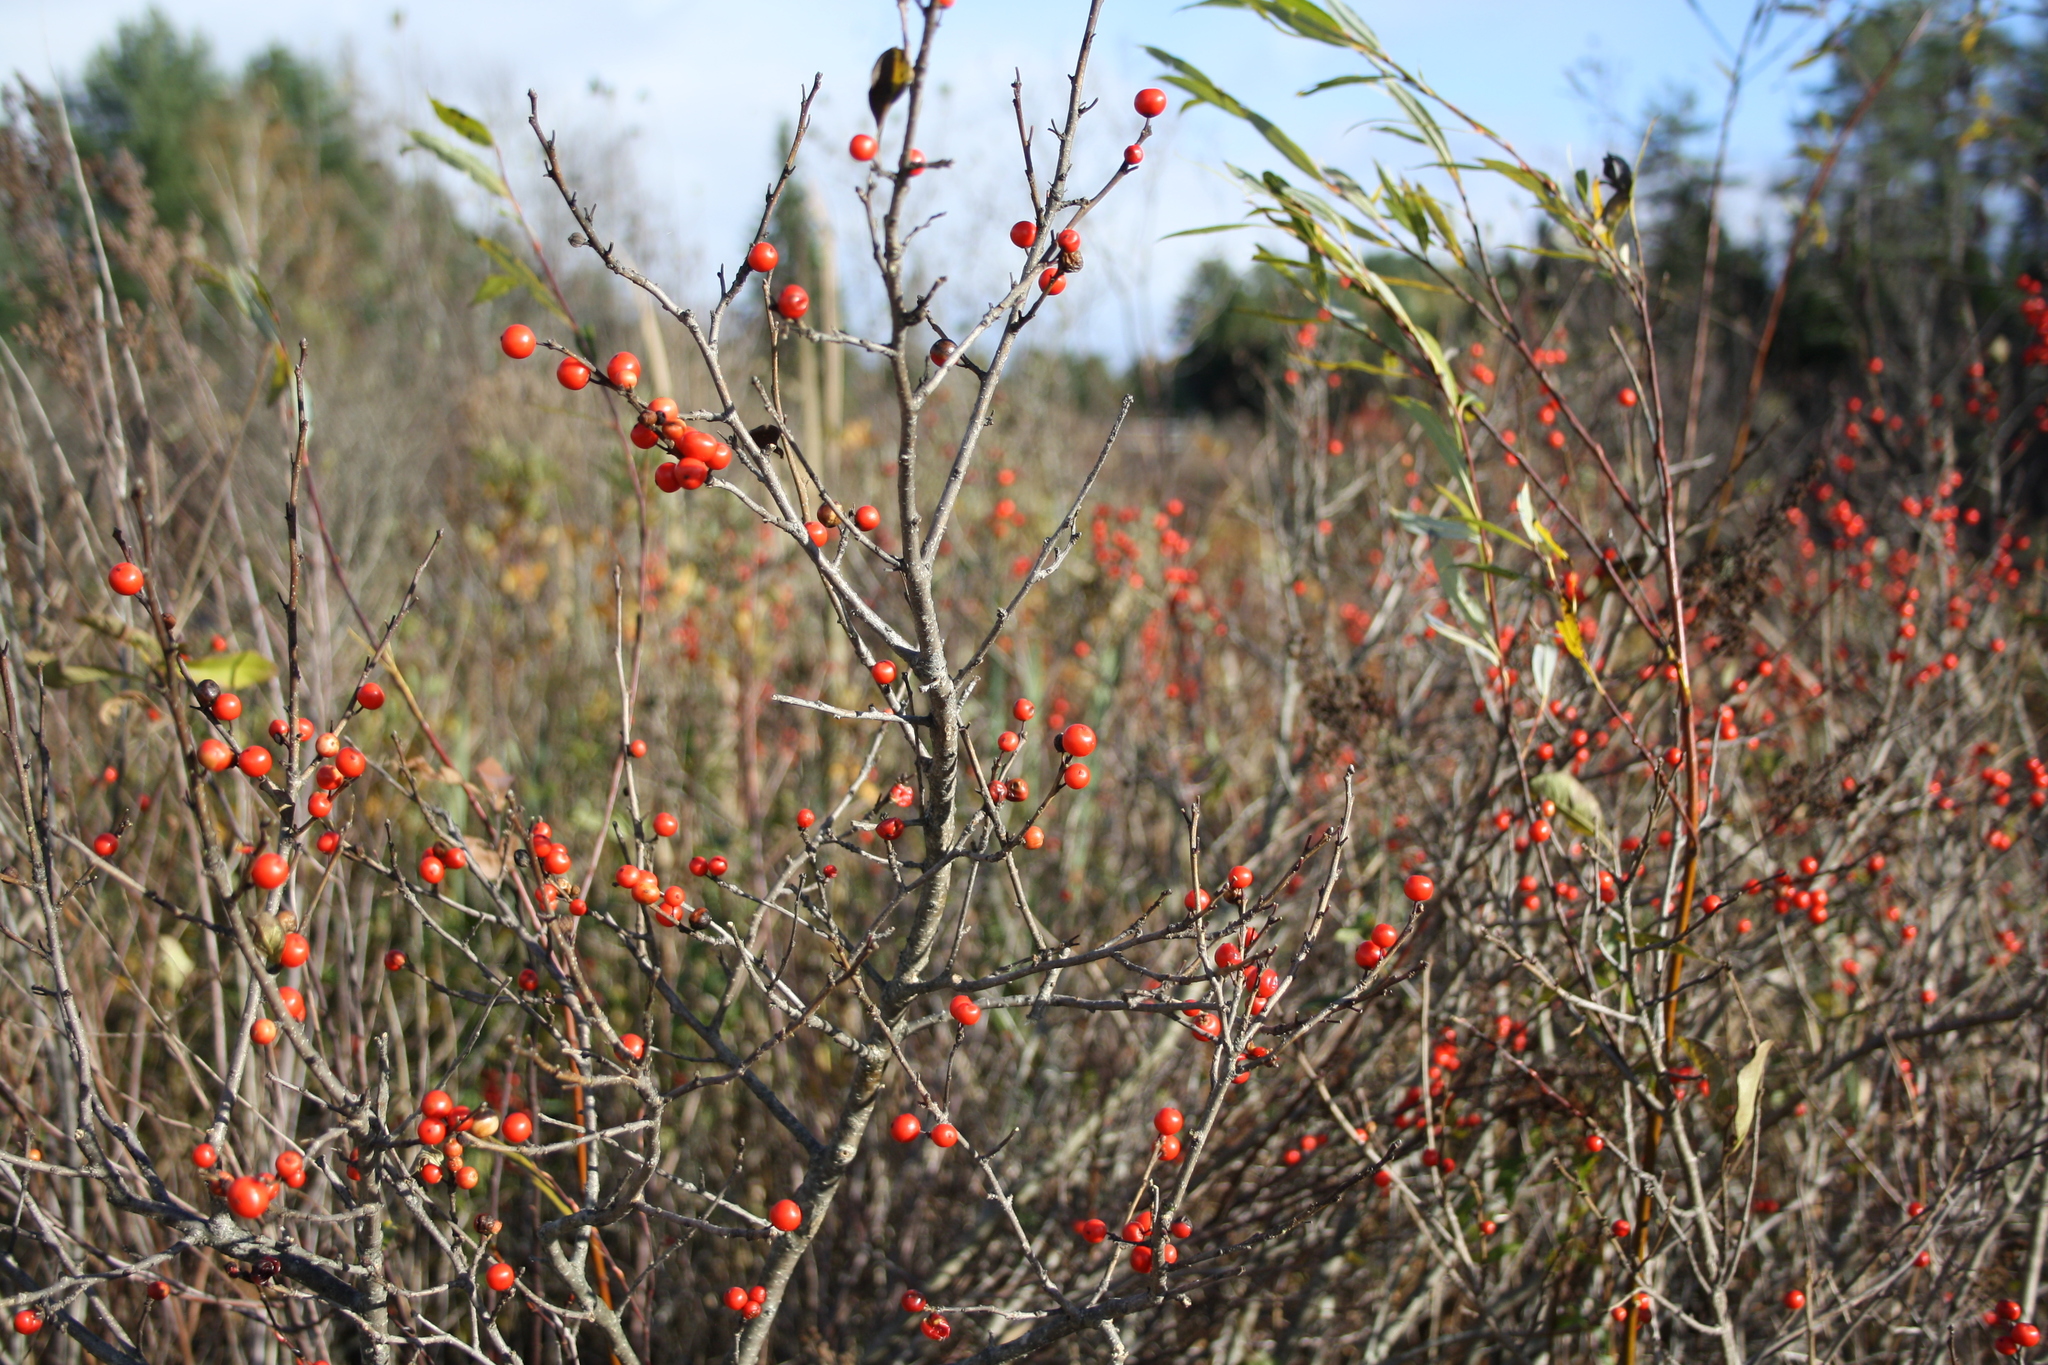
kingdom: Plantae
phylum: Tracheophyta
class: Magnoliopsida
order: Aquifoliales
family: Aquifoliaceae
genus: Ilex
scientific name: Ilex verticillata
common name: Virginia winterberry
